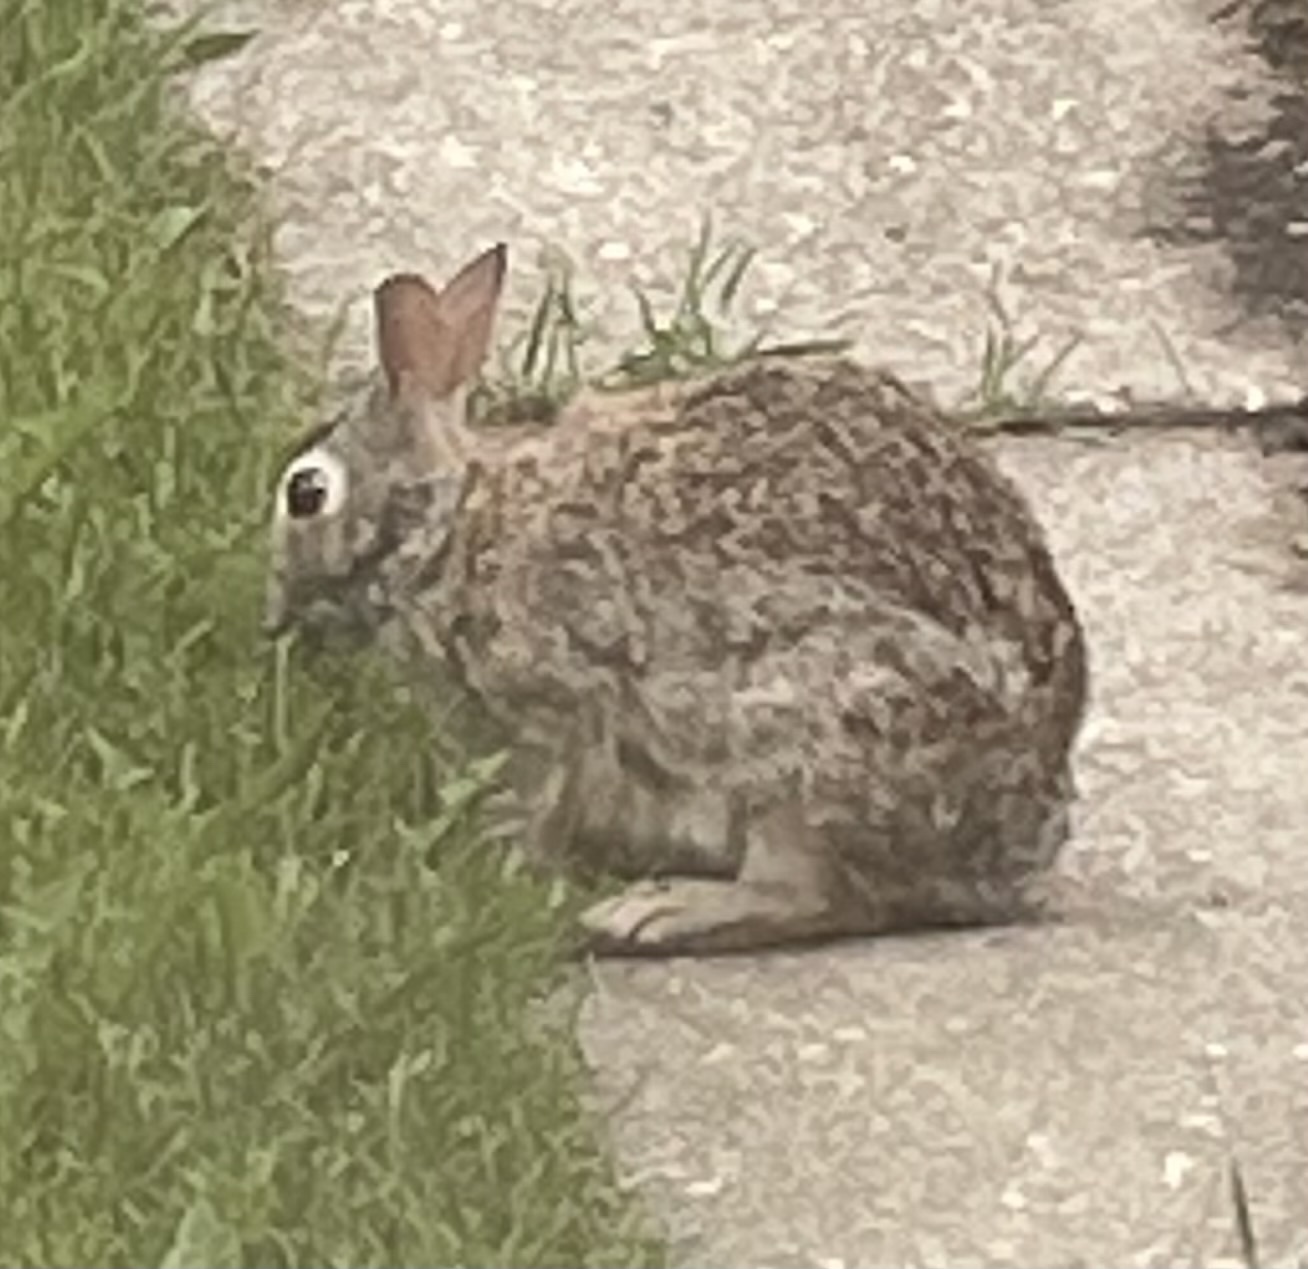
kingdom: Animalia
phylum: Chordata
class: Mammalia
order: Lagomorpha
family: Leporidae
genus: Sylvilagus
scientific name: Sylvilagus floridanus
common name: Eastern cottontail
